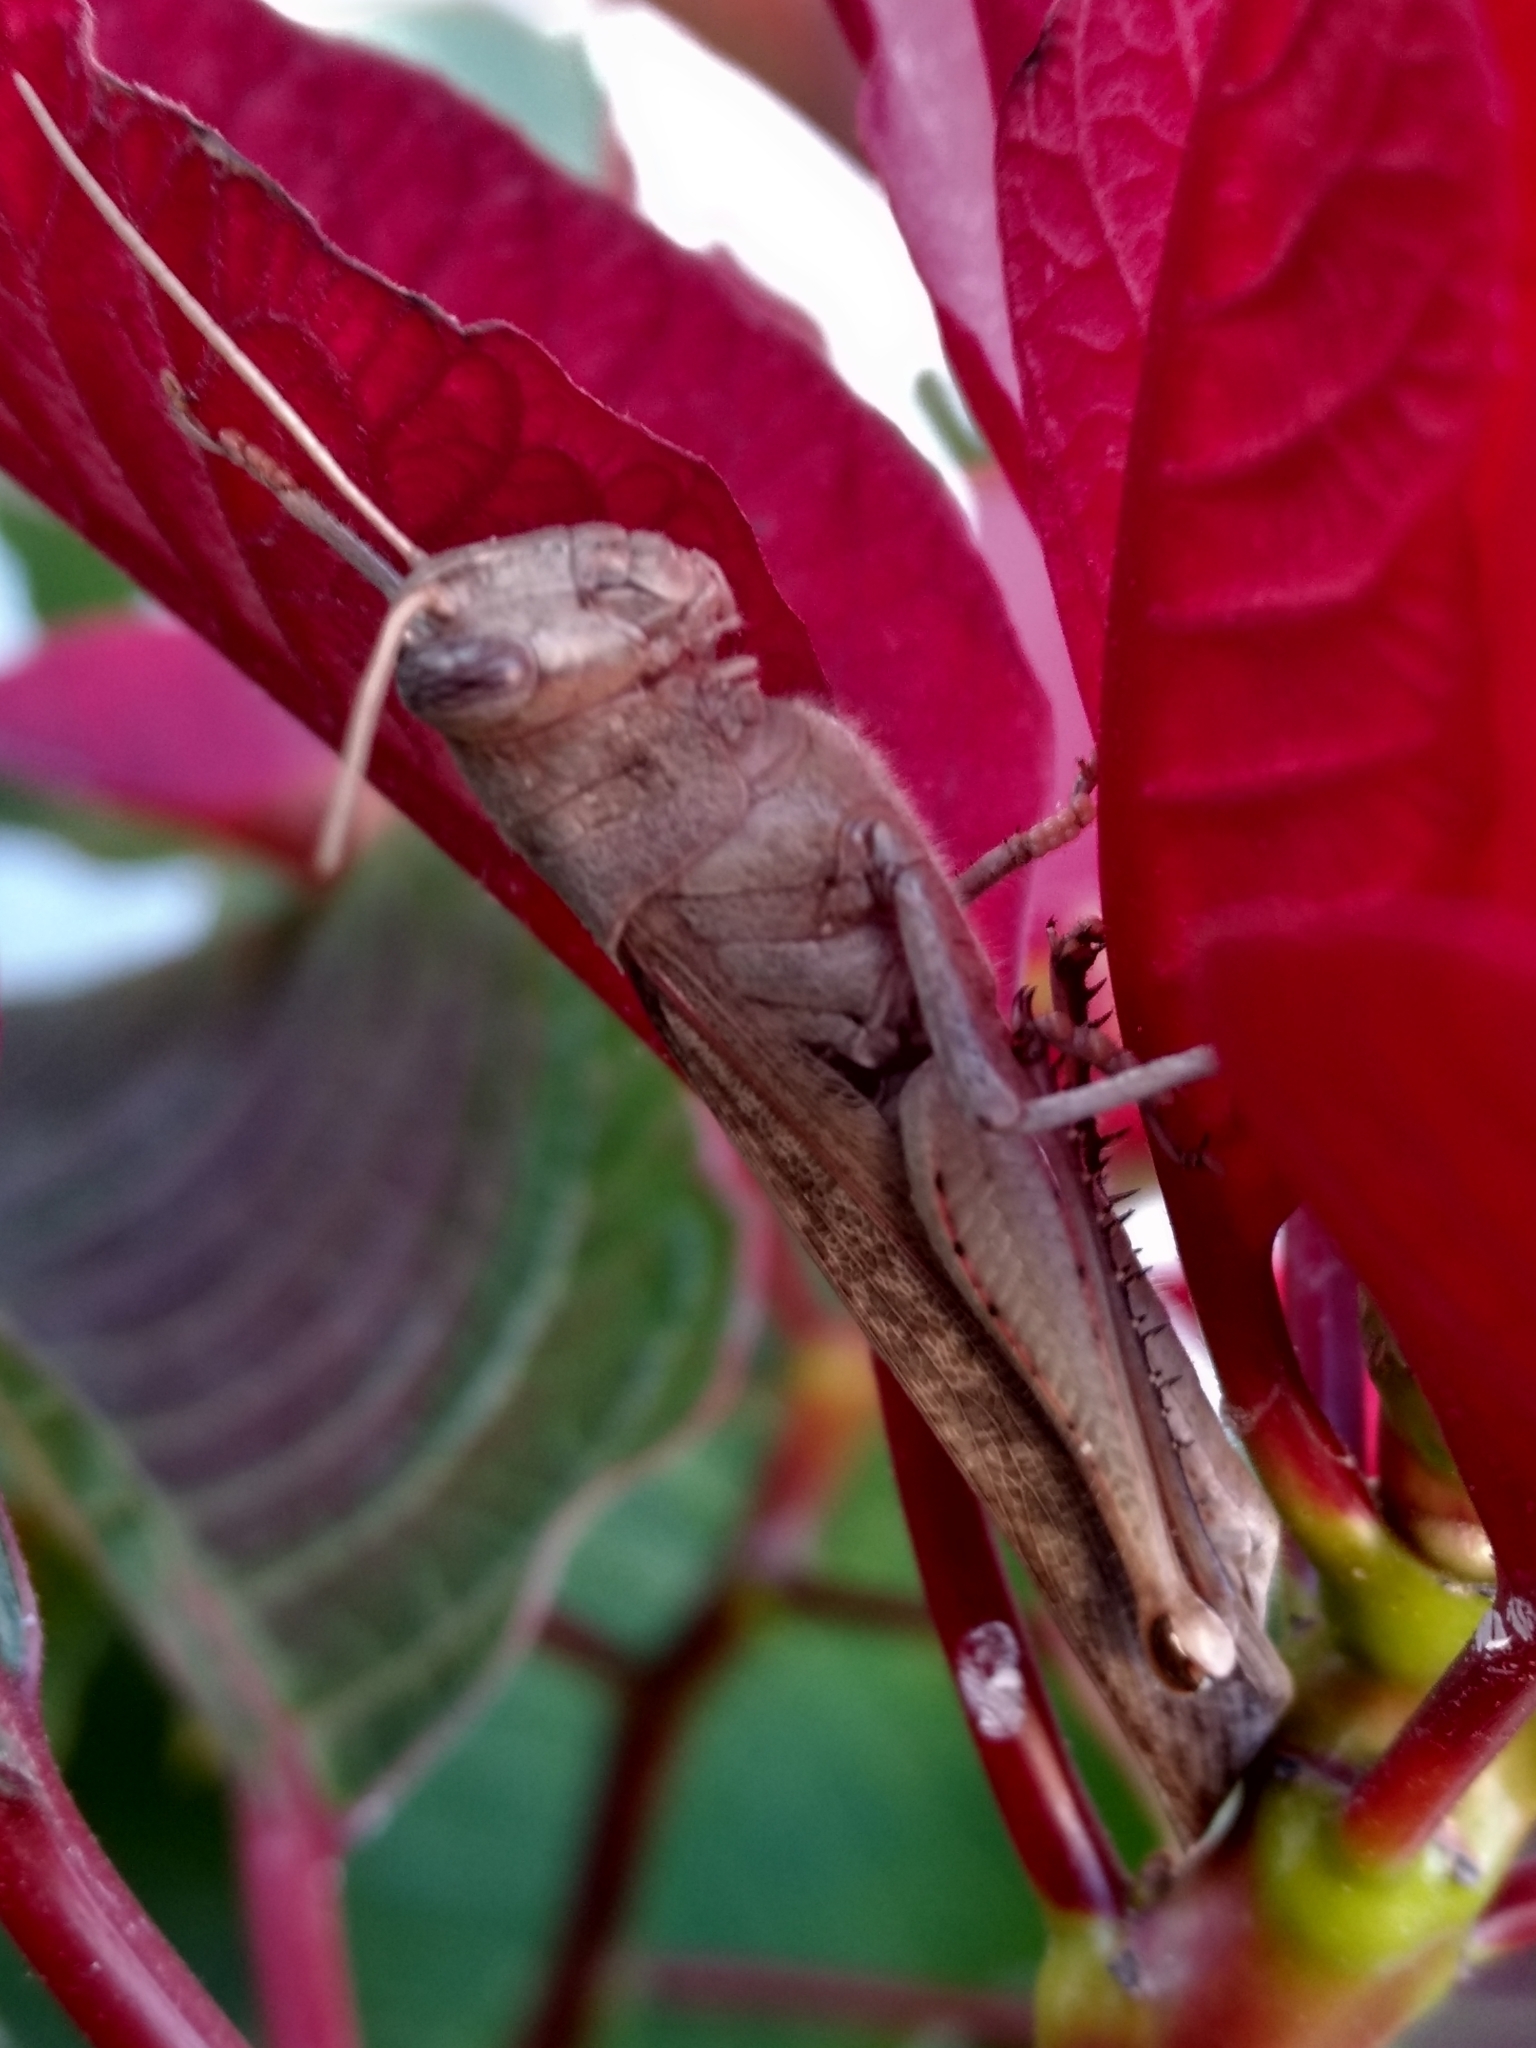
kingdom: Animalia
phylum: Arthropoda
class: Insecta
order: Orthoptera
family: Acrididae
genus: Schistocerca
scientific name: Schistocerca nitens
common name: Vagrant grasshopper
